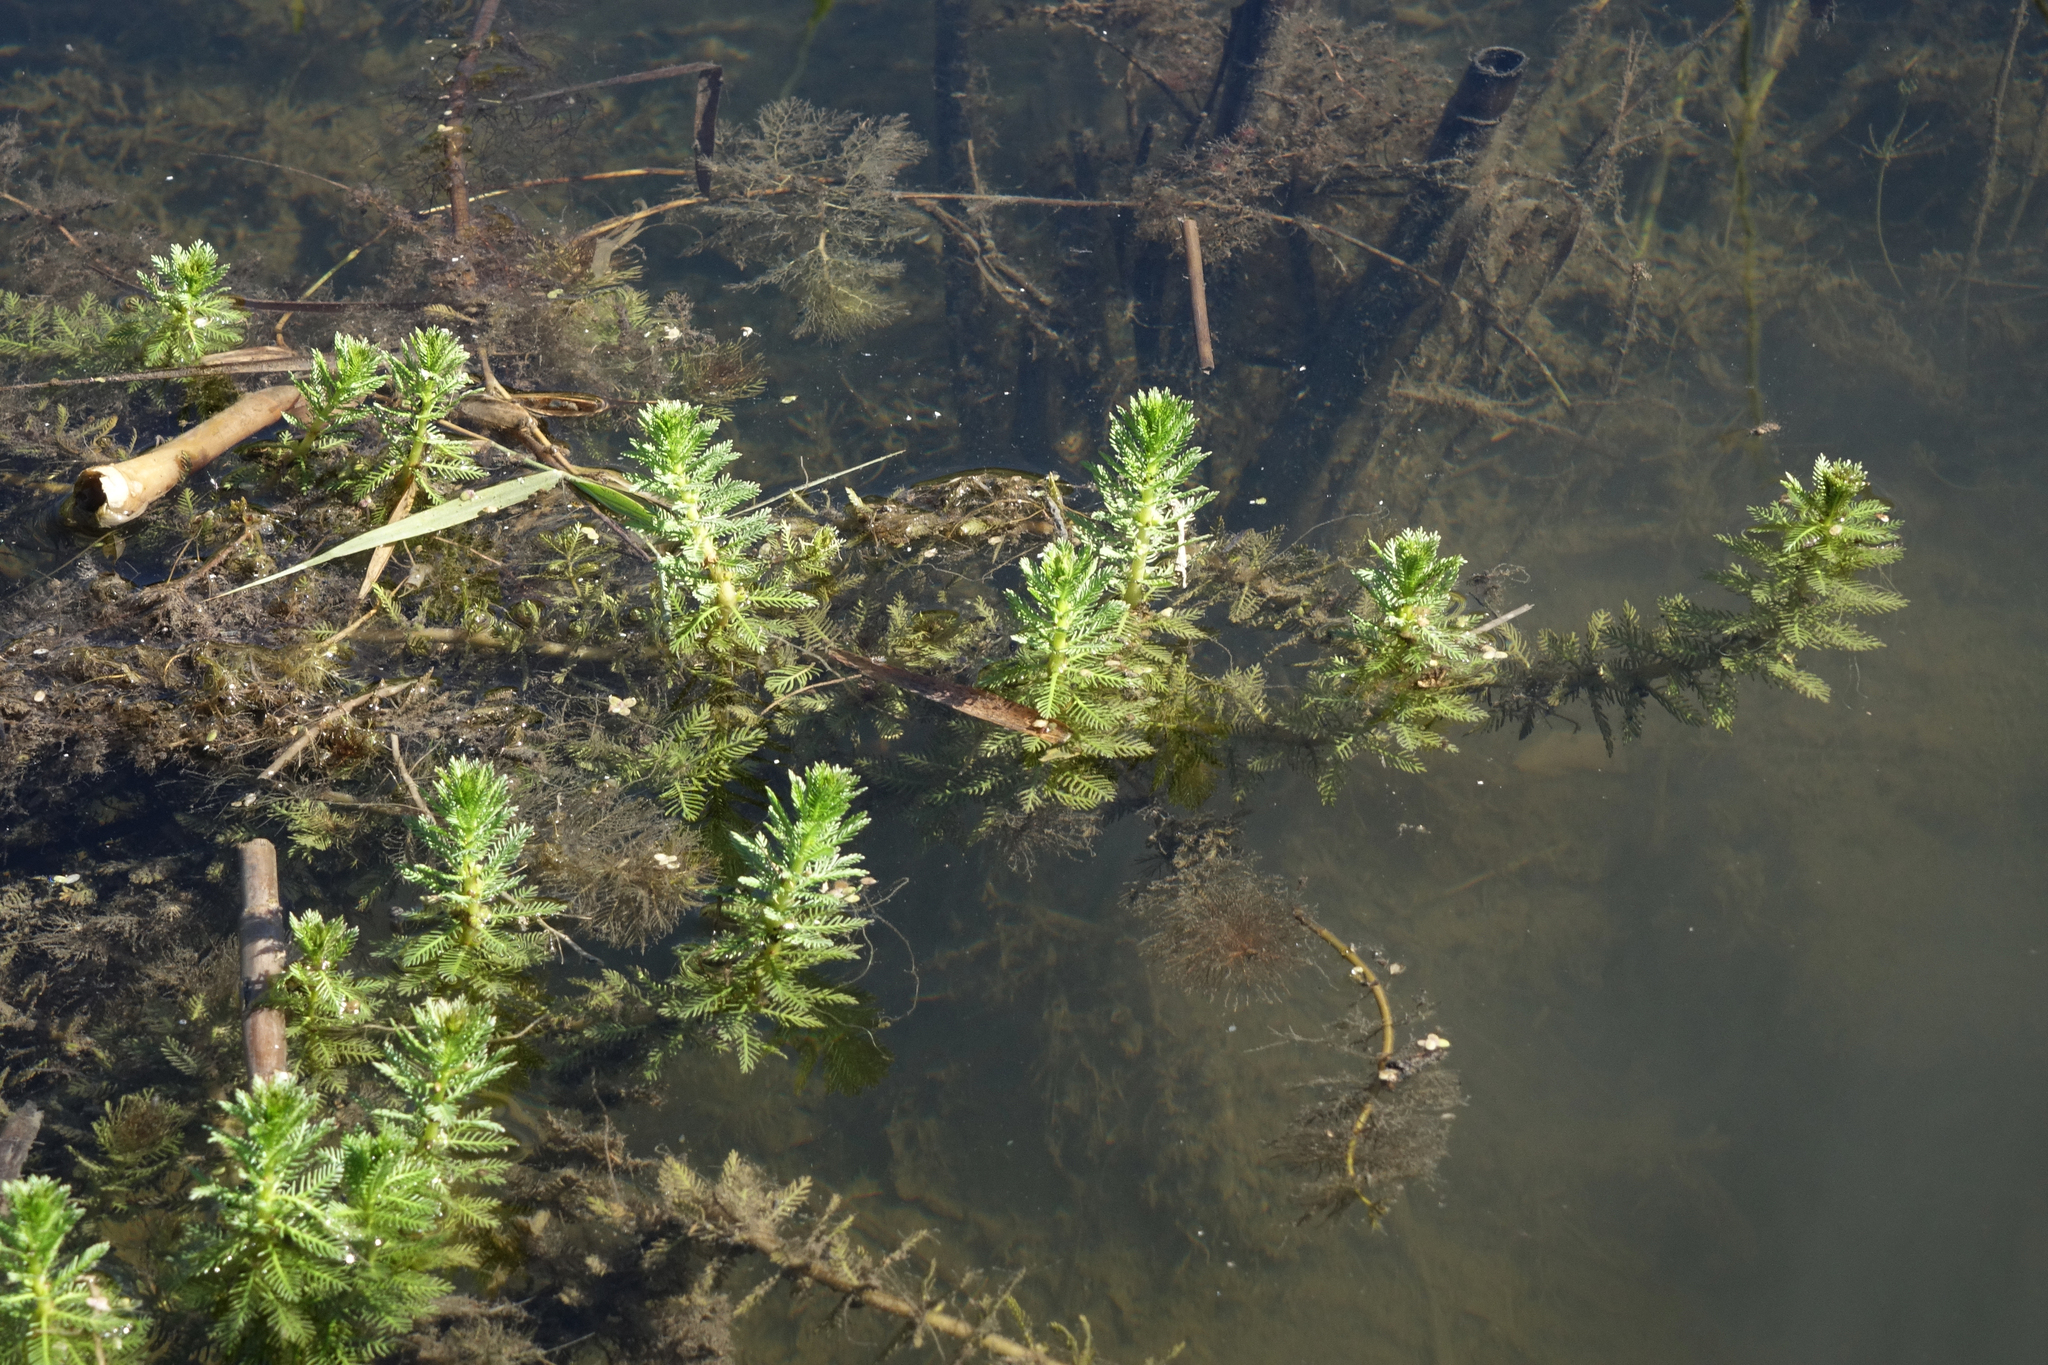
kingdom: Plantae
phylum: Tracheophyta
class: Magnoliopsida
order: Saxifragales
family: Haloragaceae
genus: Myriophyllum
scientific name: Myriophyllum verticillatum
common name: Whorled water-milfoil
